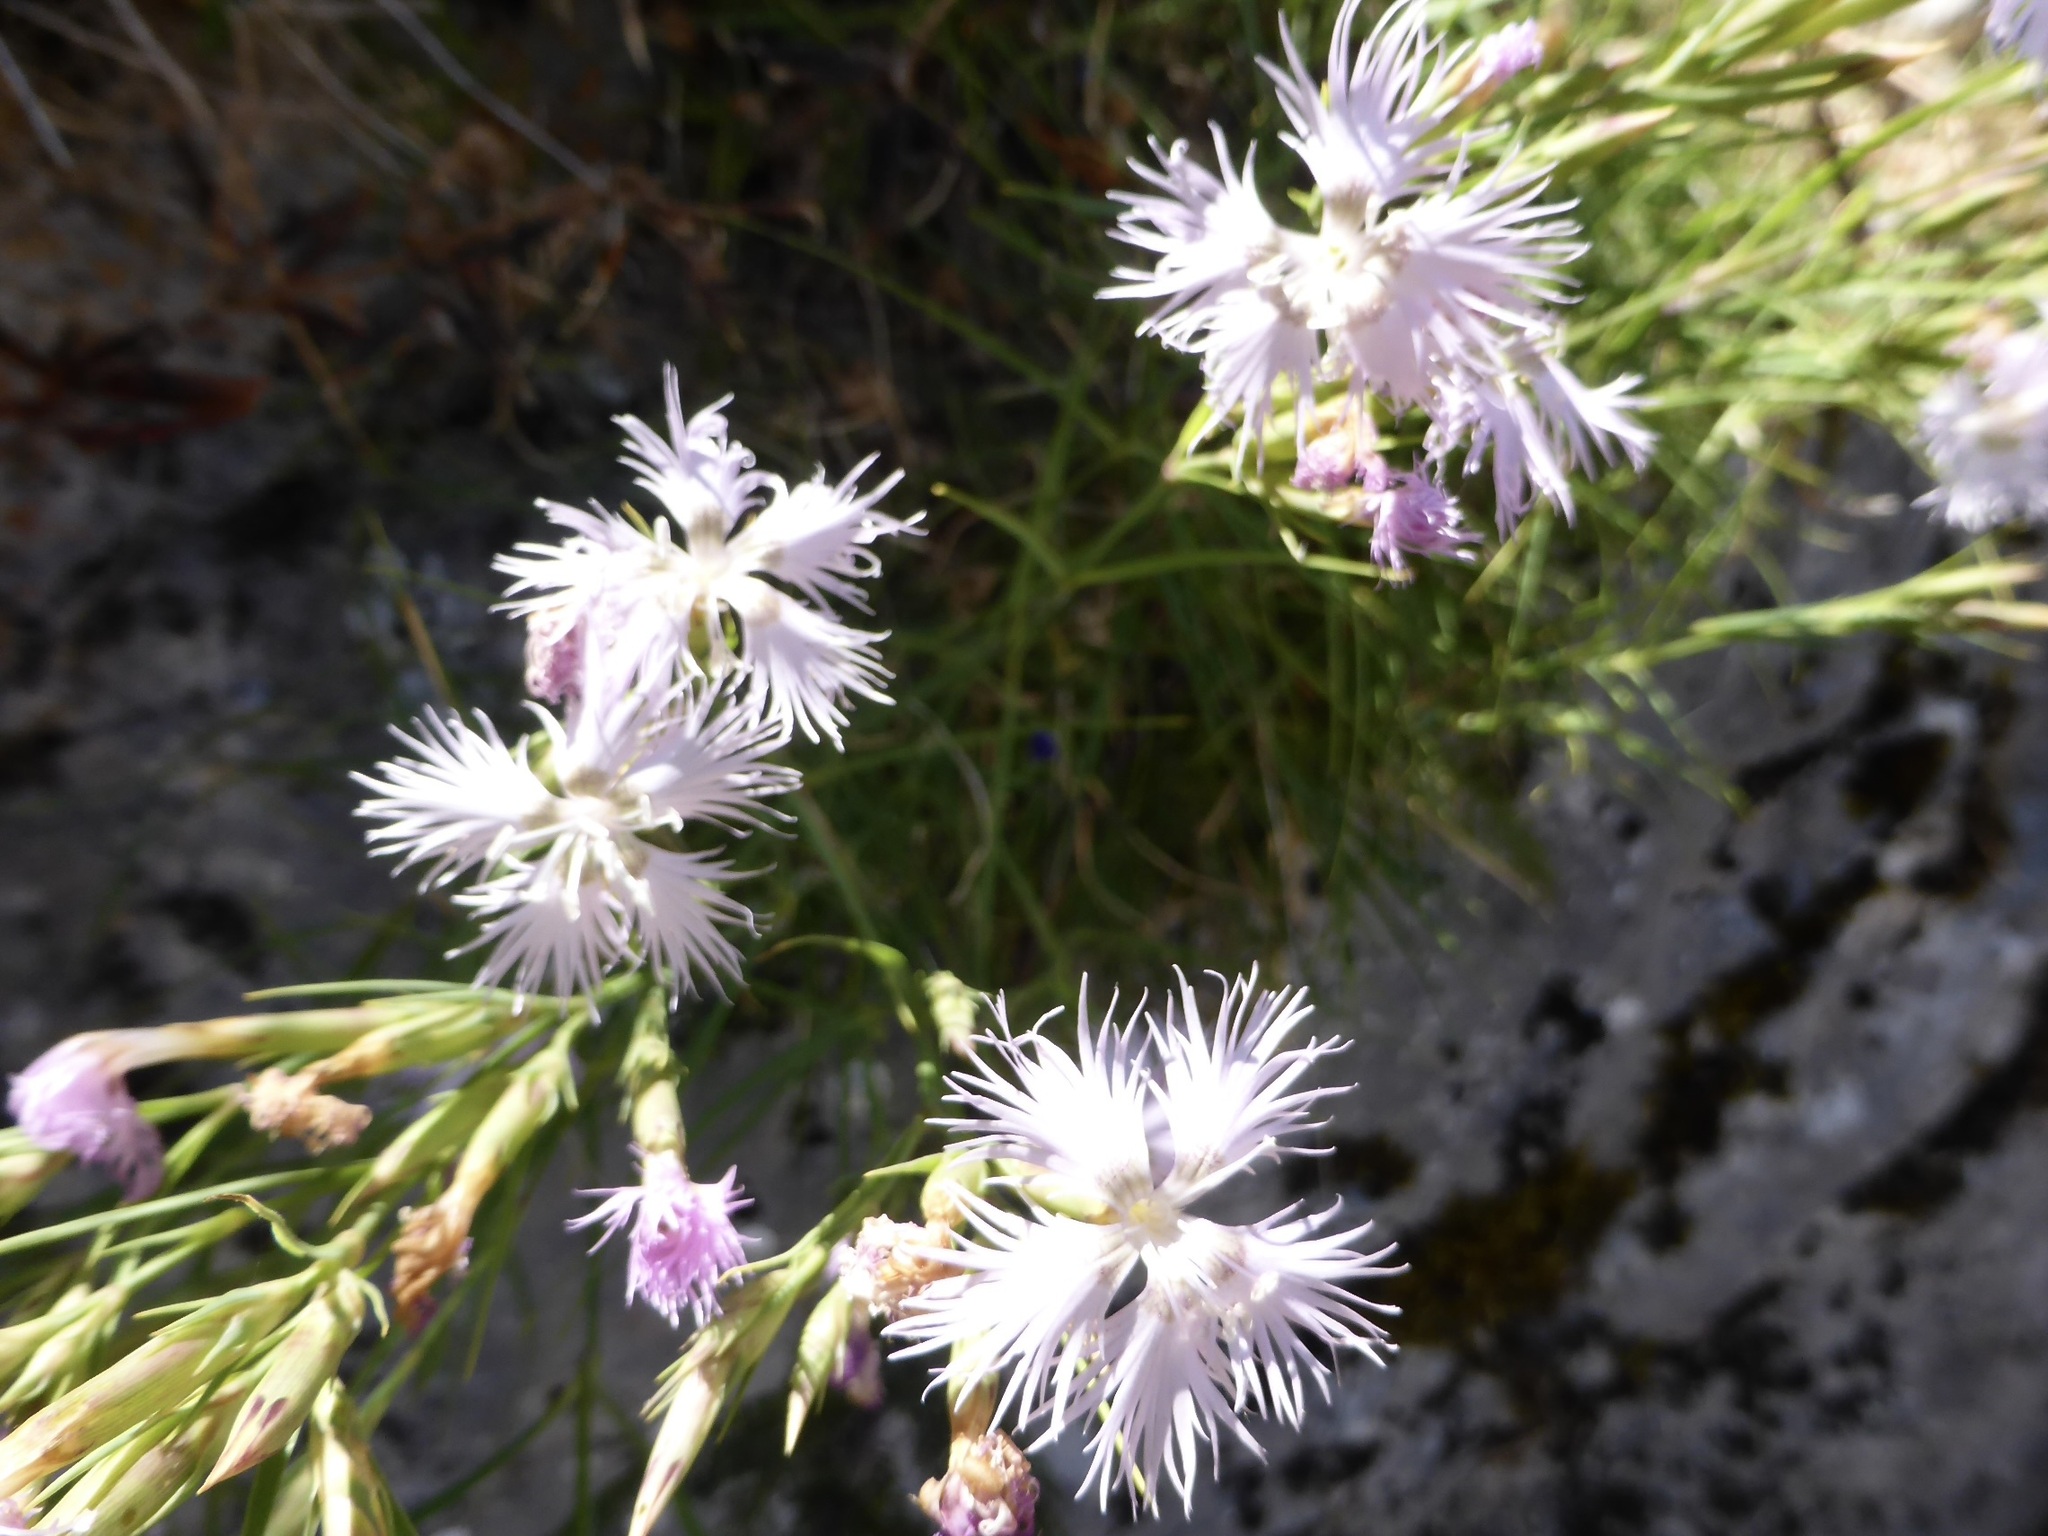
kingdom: Plantae
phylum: Tracheophyta
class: Magnoliopsida
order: Caryophyllales
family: Caryophyllaceae
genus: Dianthus
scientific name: Dianthus hyssopifolius
